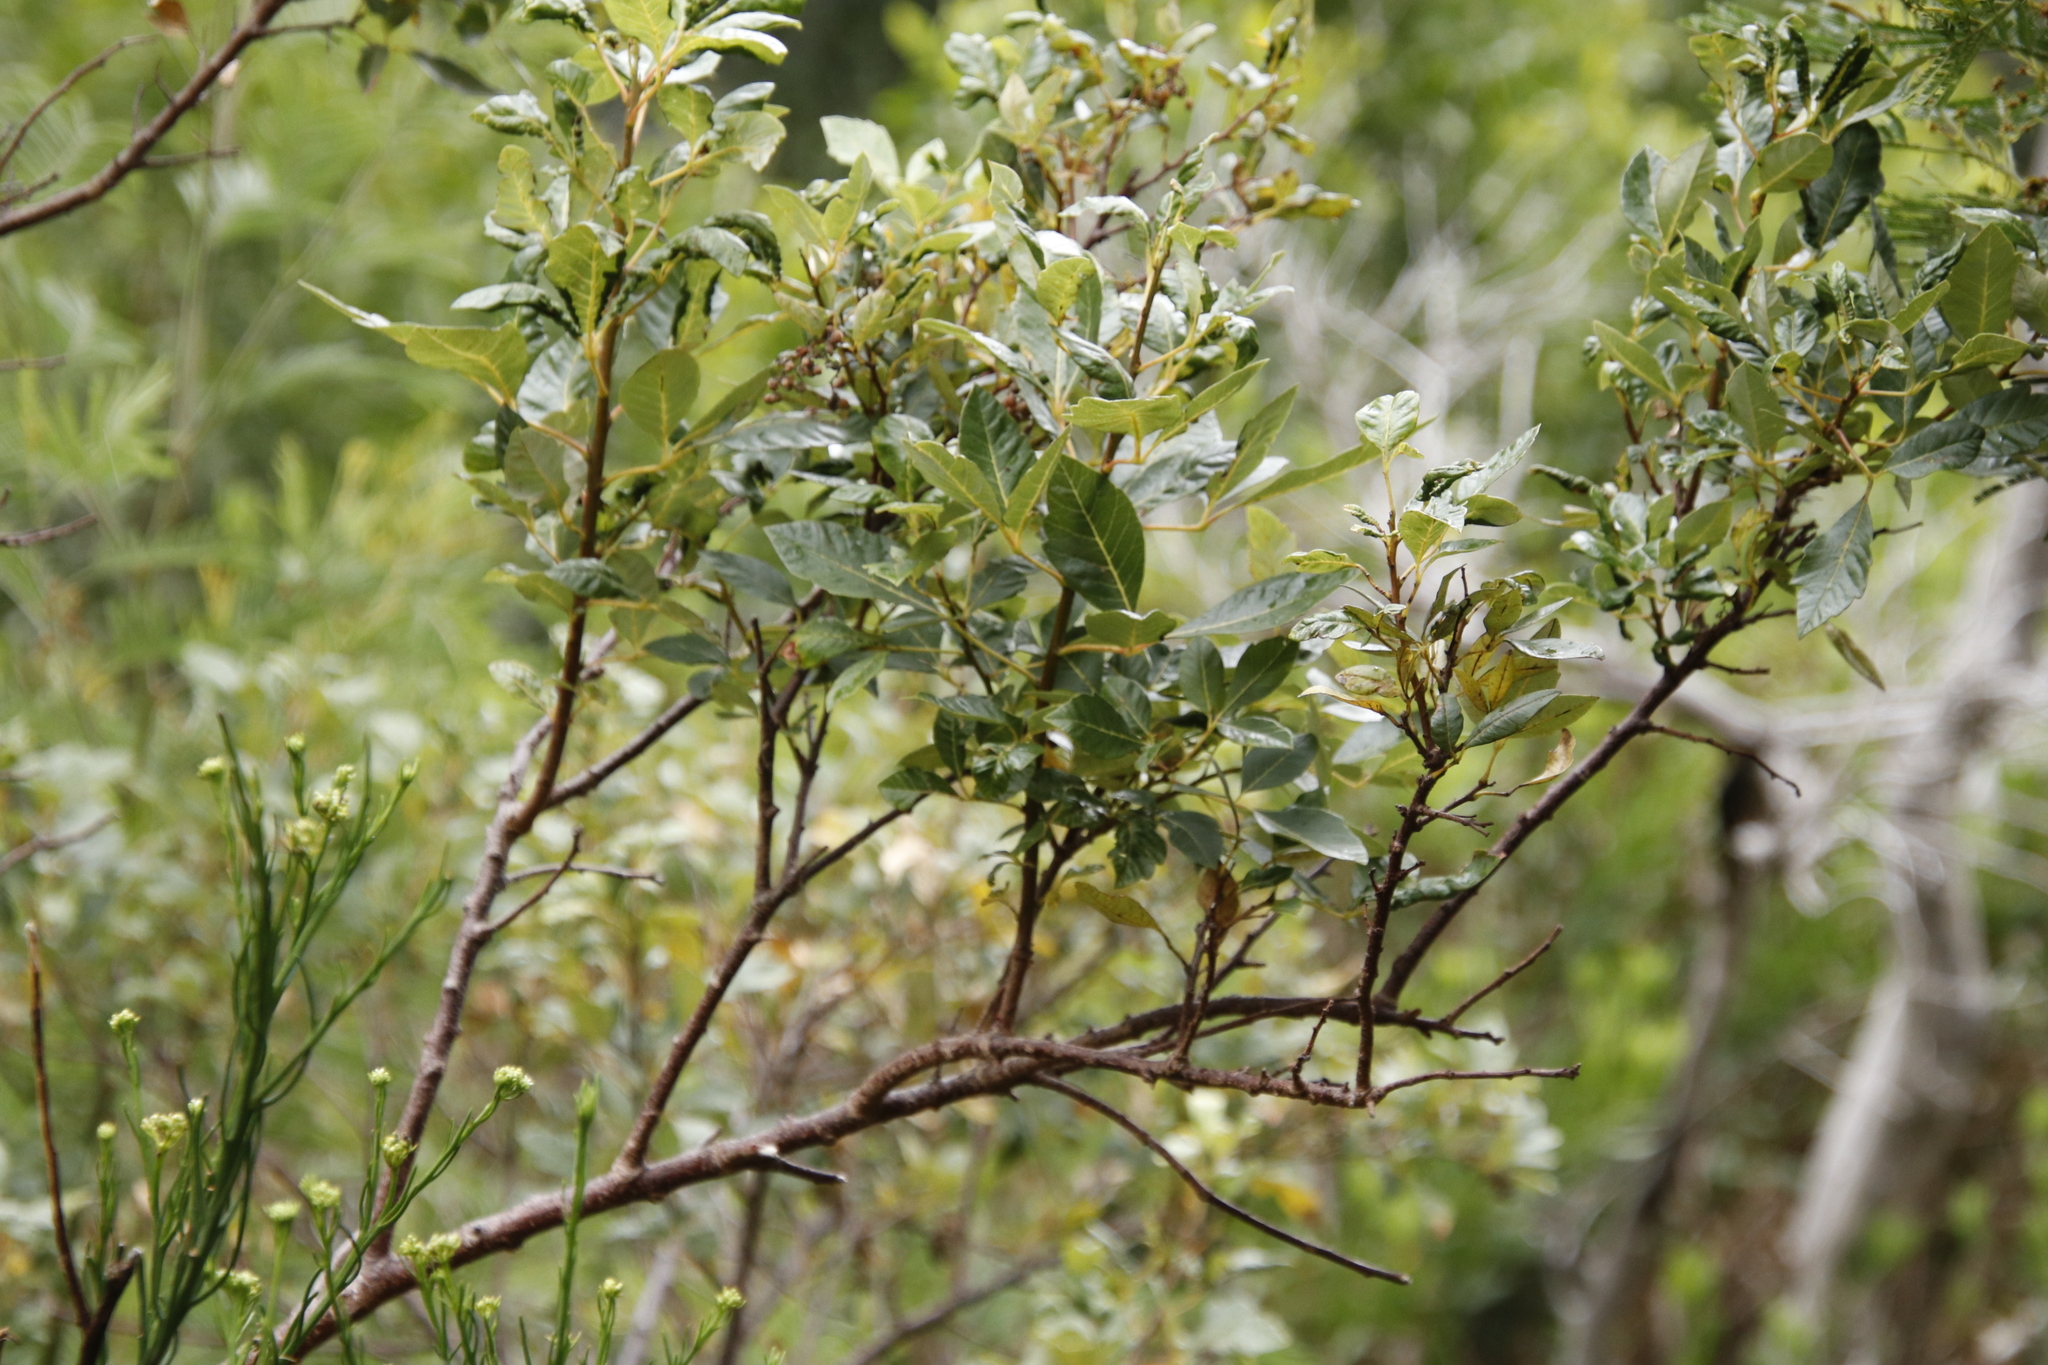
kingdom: Plantae
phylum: Tracheophyta
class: Magnoliopsida
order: Sapindales
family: Anacardiaceae
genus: Searsia
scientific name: Searsia tomentosa
